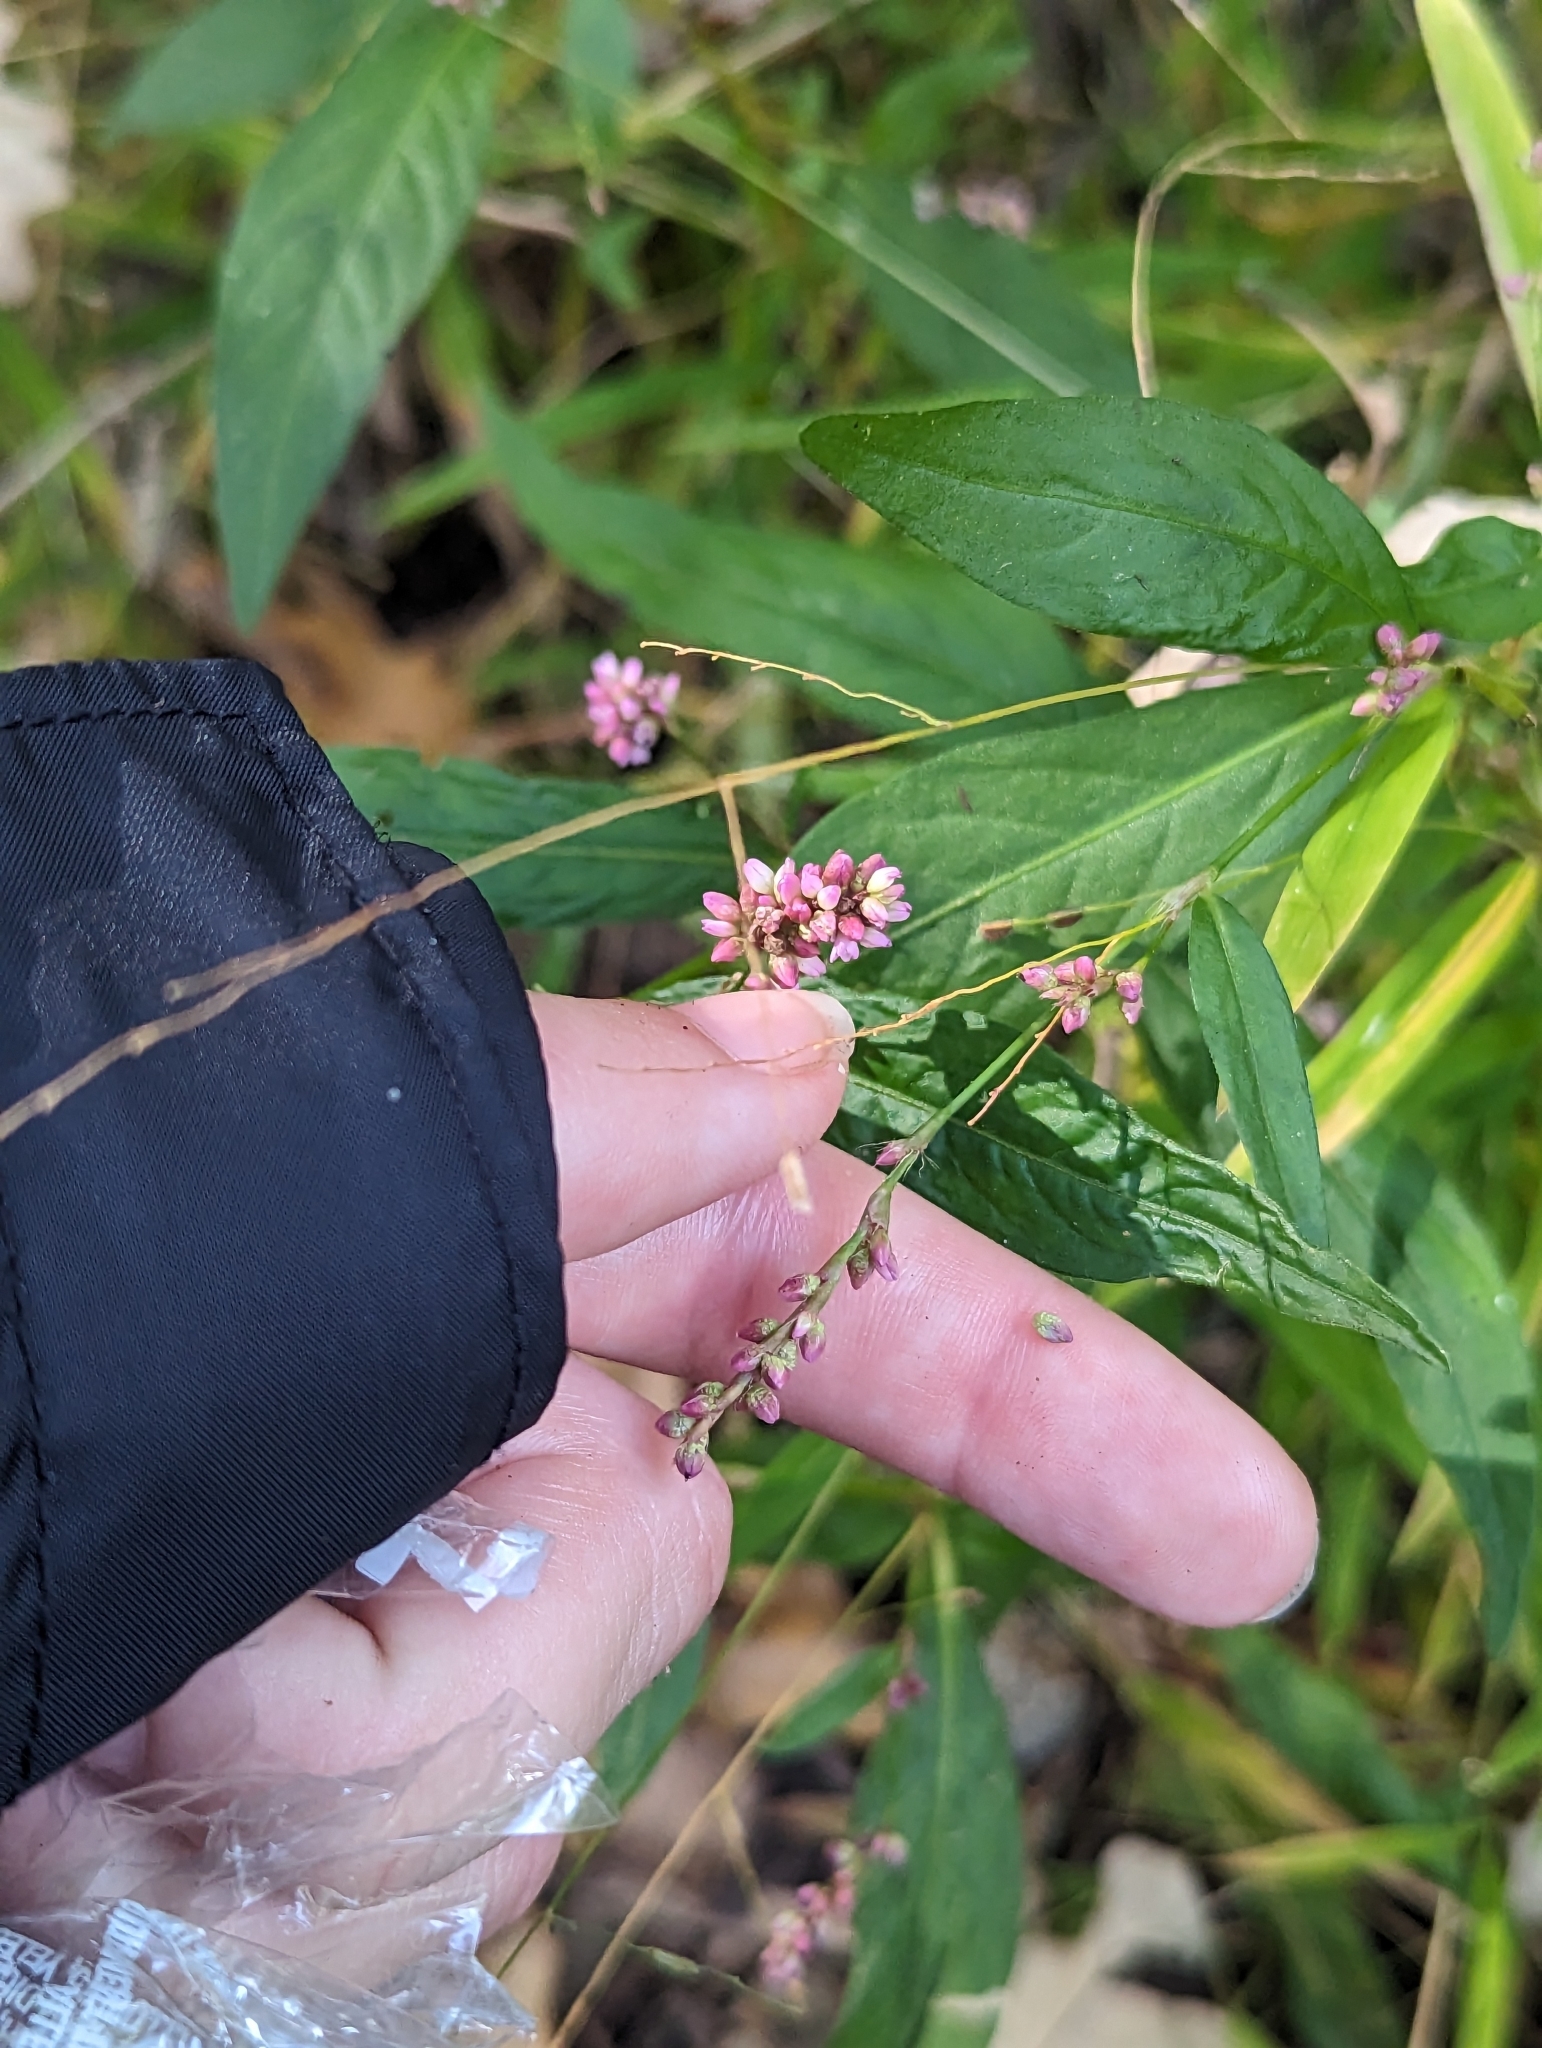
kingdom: Plantae
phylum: Tracheophyta
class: Magnoliopsida
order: Caryophyllales
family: Polygonaceae
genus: Persicaria
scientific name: Persicaria longiseta
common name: Bristly lady's-thumb
